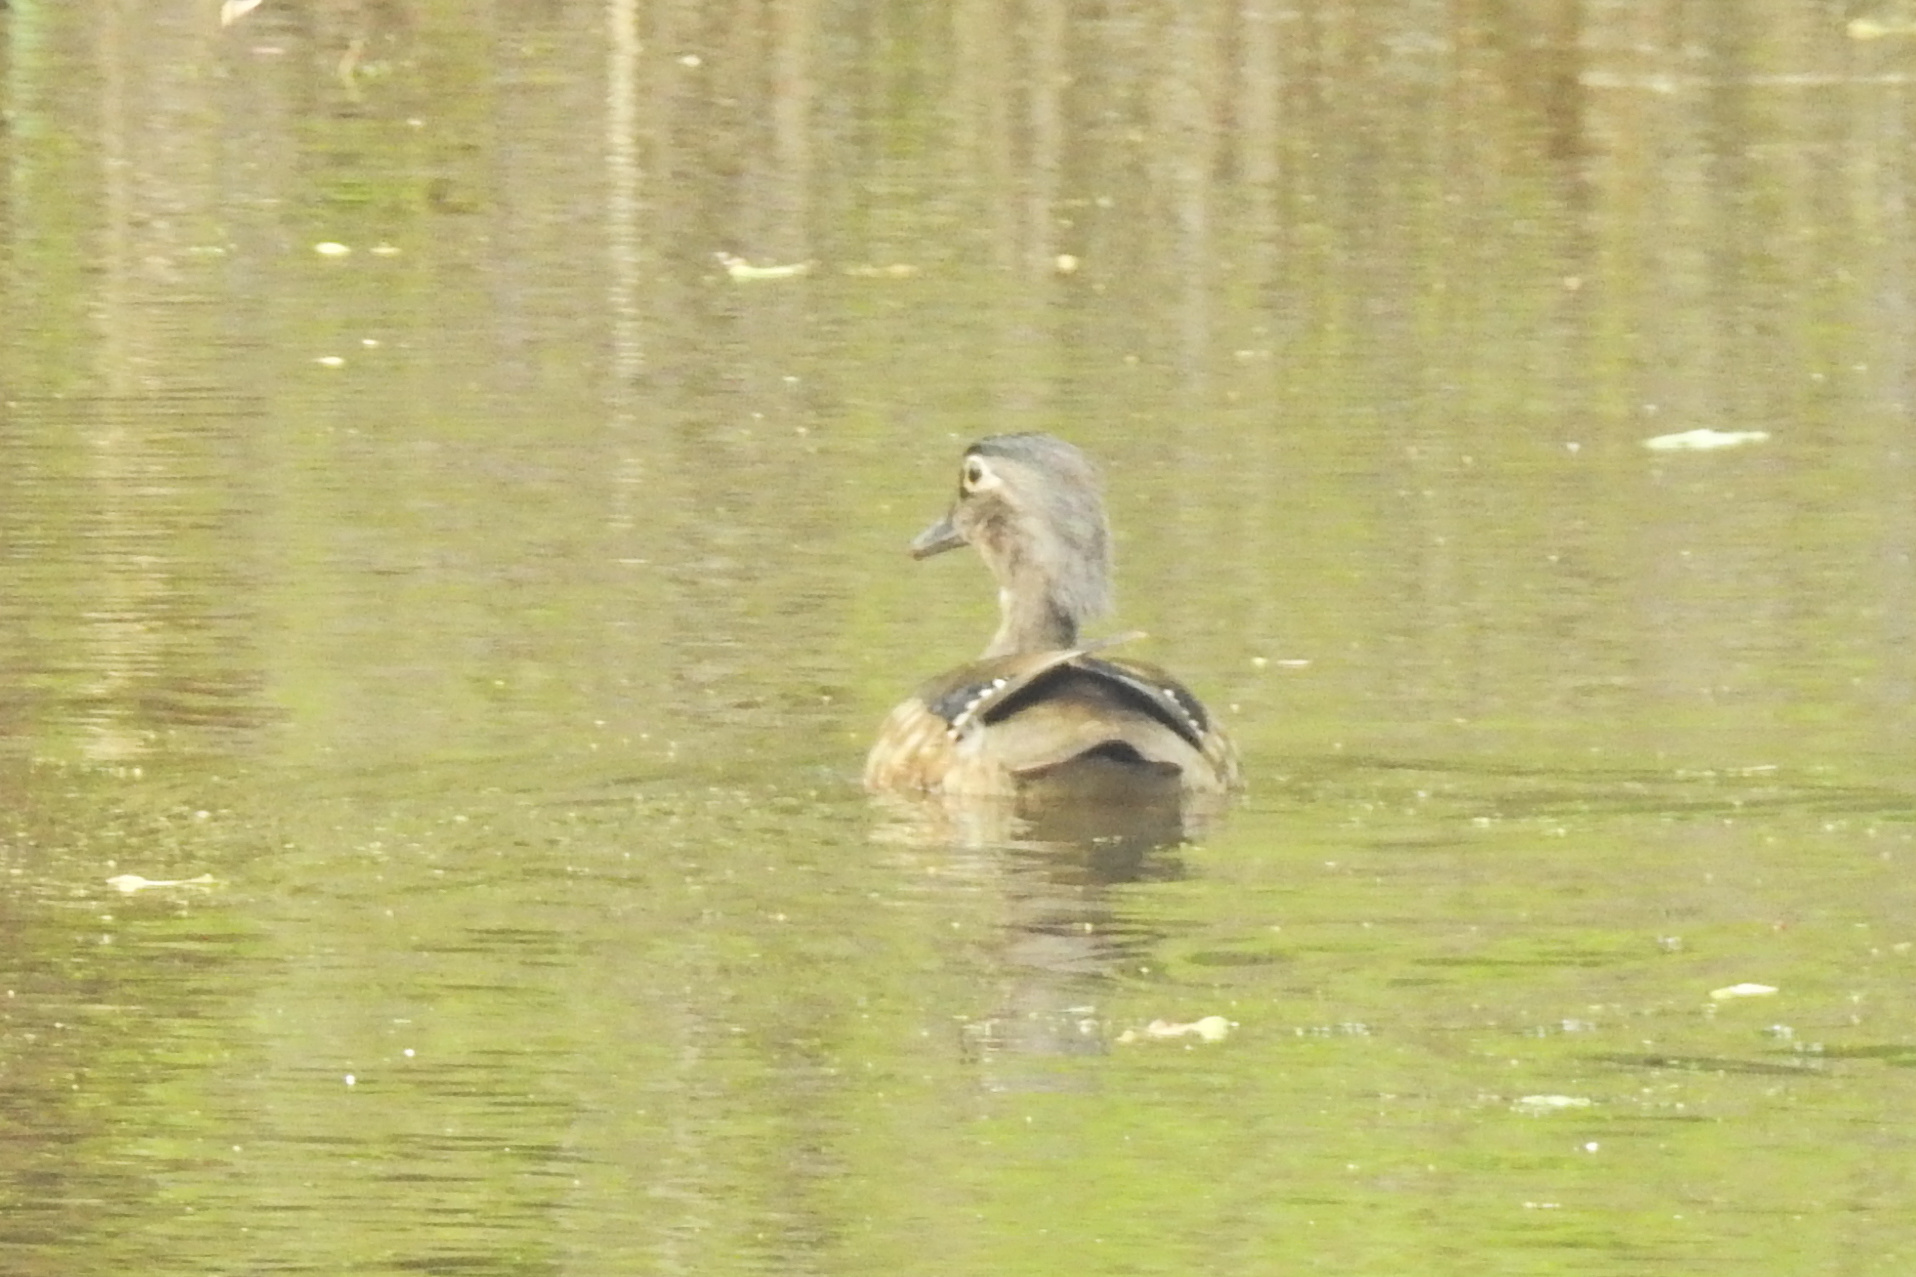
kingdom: Animalia
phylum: Chordata
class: Aves
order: Anseriformes
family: Anatidae
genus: Aix
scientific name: Aix sponsa
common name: Wood duck
